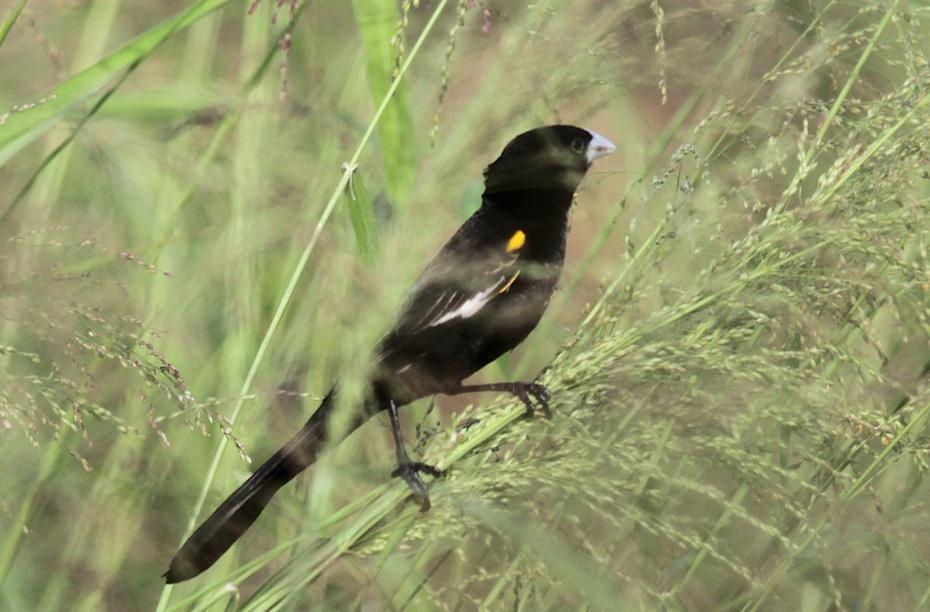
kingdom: Animalia
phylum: Chordata
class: Aves
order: Passeriformes
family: Ploceidae
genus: Euplectes
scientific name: Euplectes albonotatus
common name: White-winged widowbird
